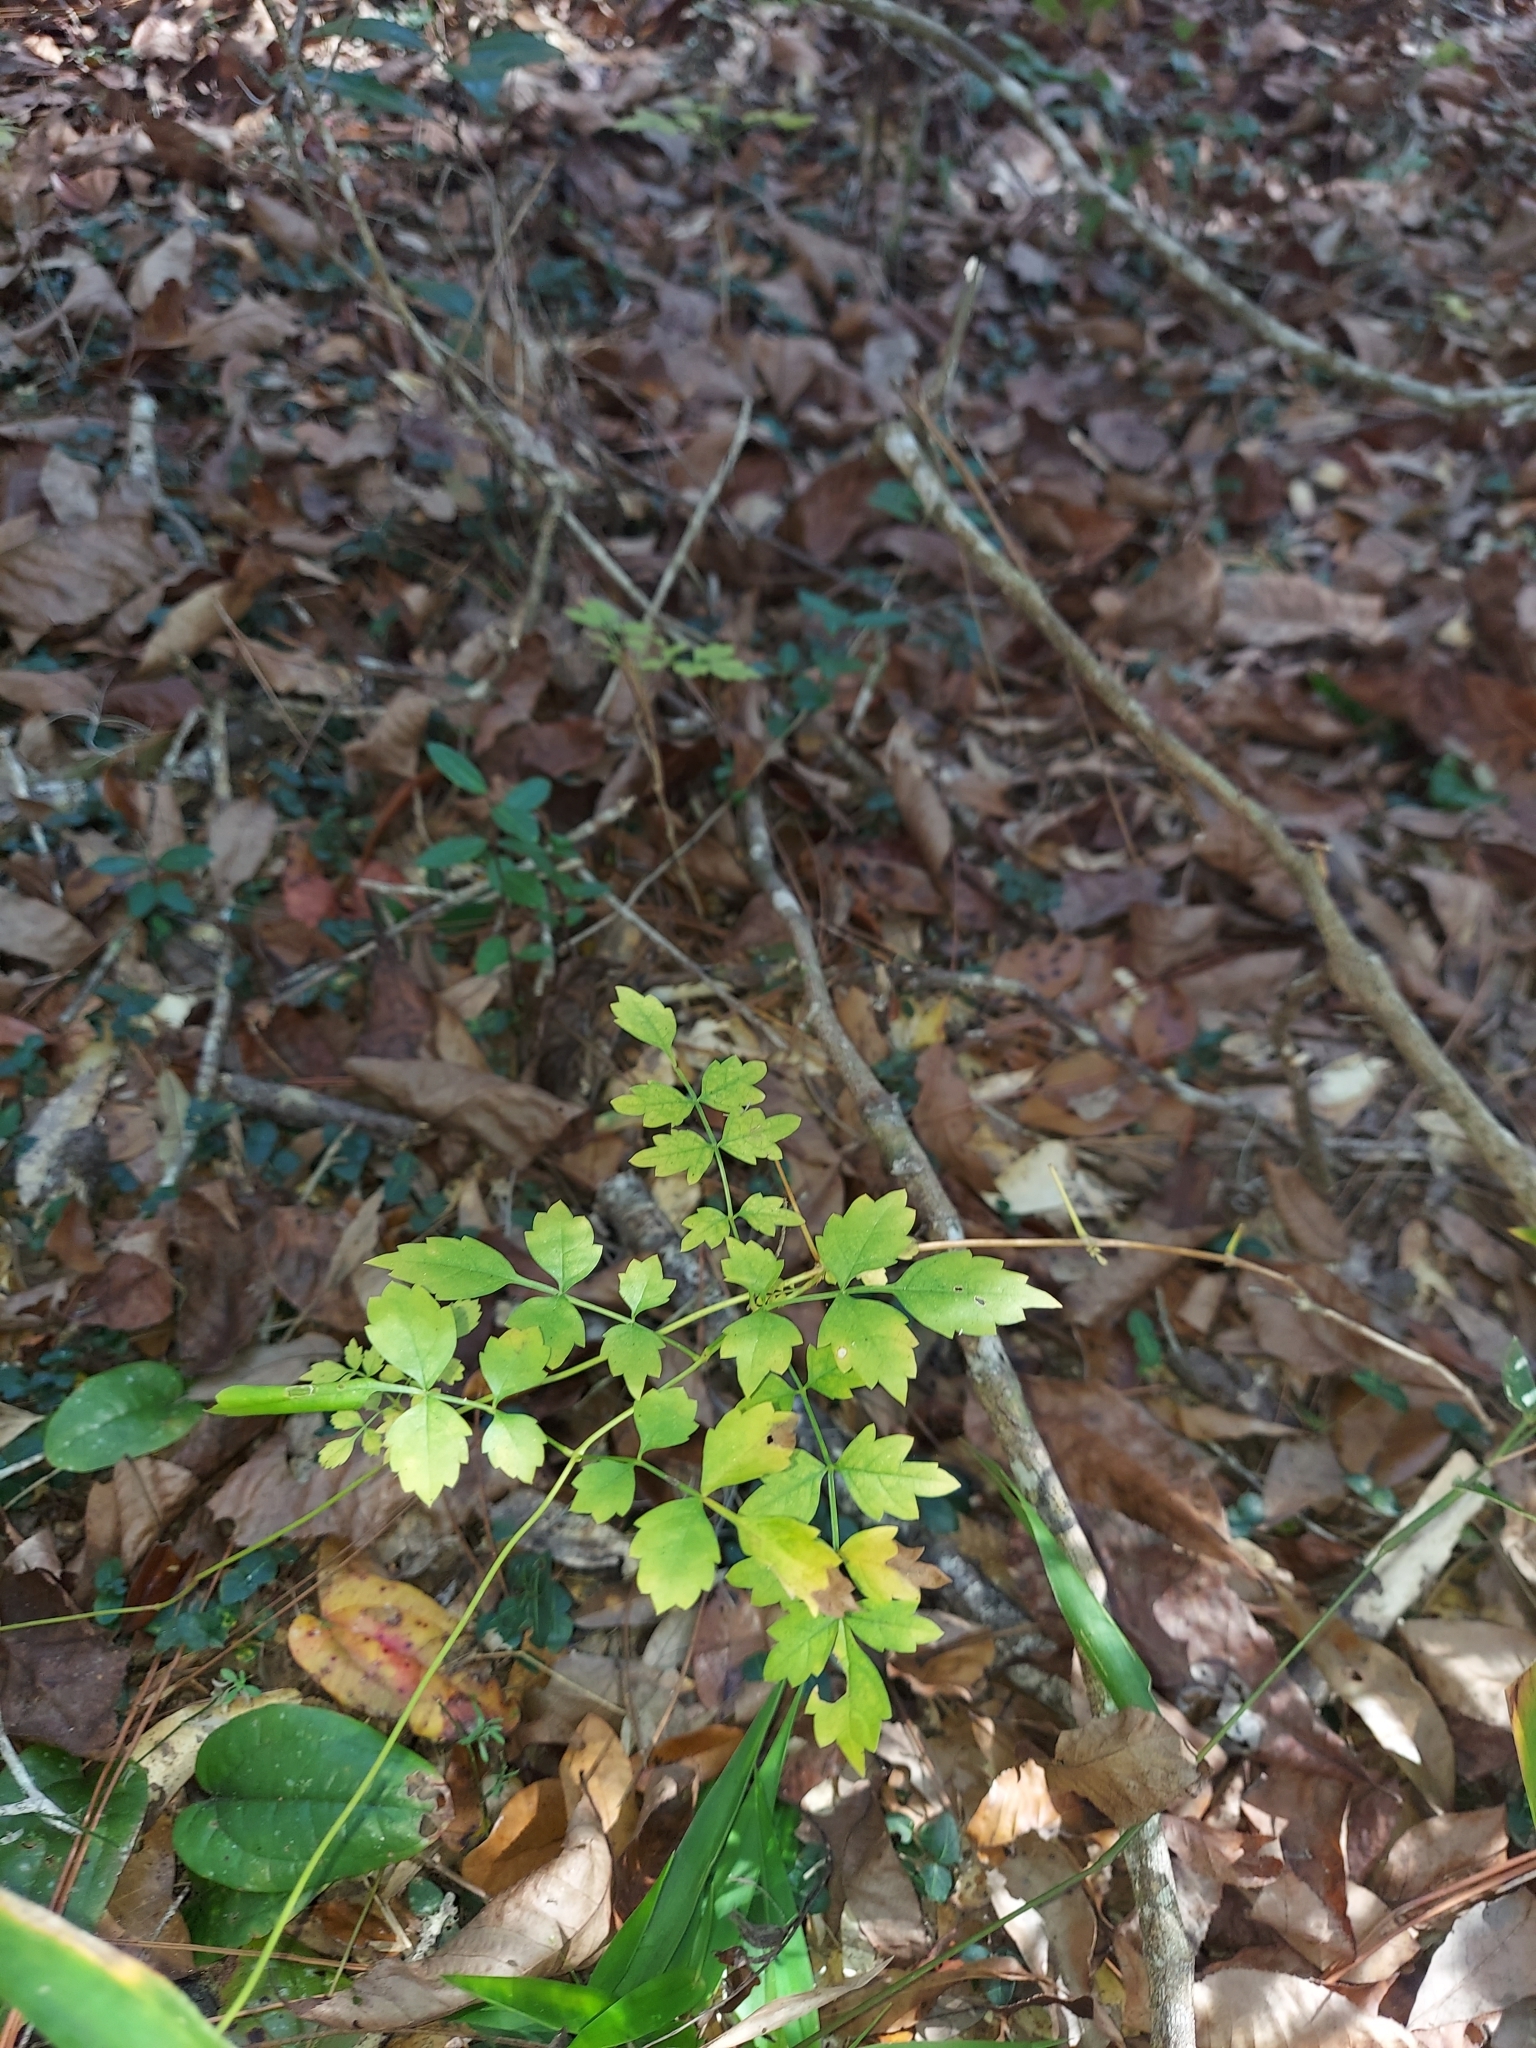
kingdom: Plantae
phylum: Tracheophyta
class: Magnoliopsida
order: Lamiales
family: Bignoniaceae
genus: Campsis
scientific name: Campsis radicans
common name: Trumpet-creeper
